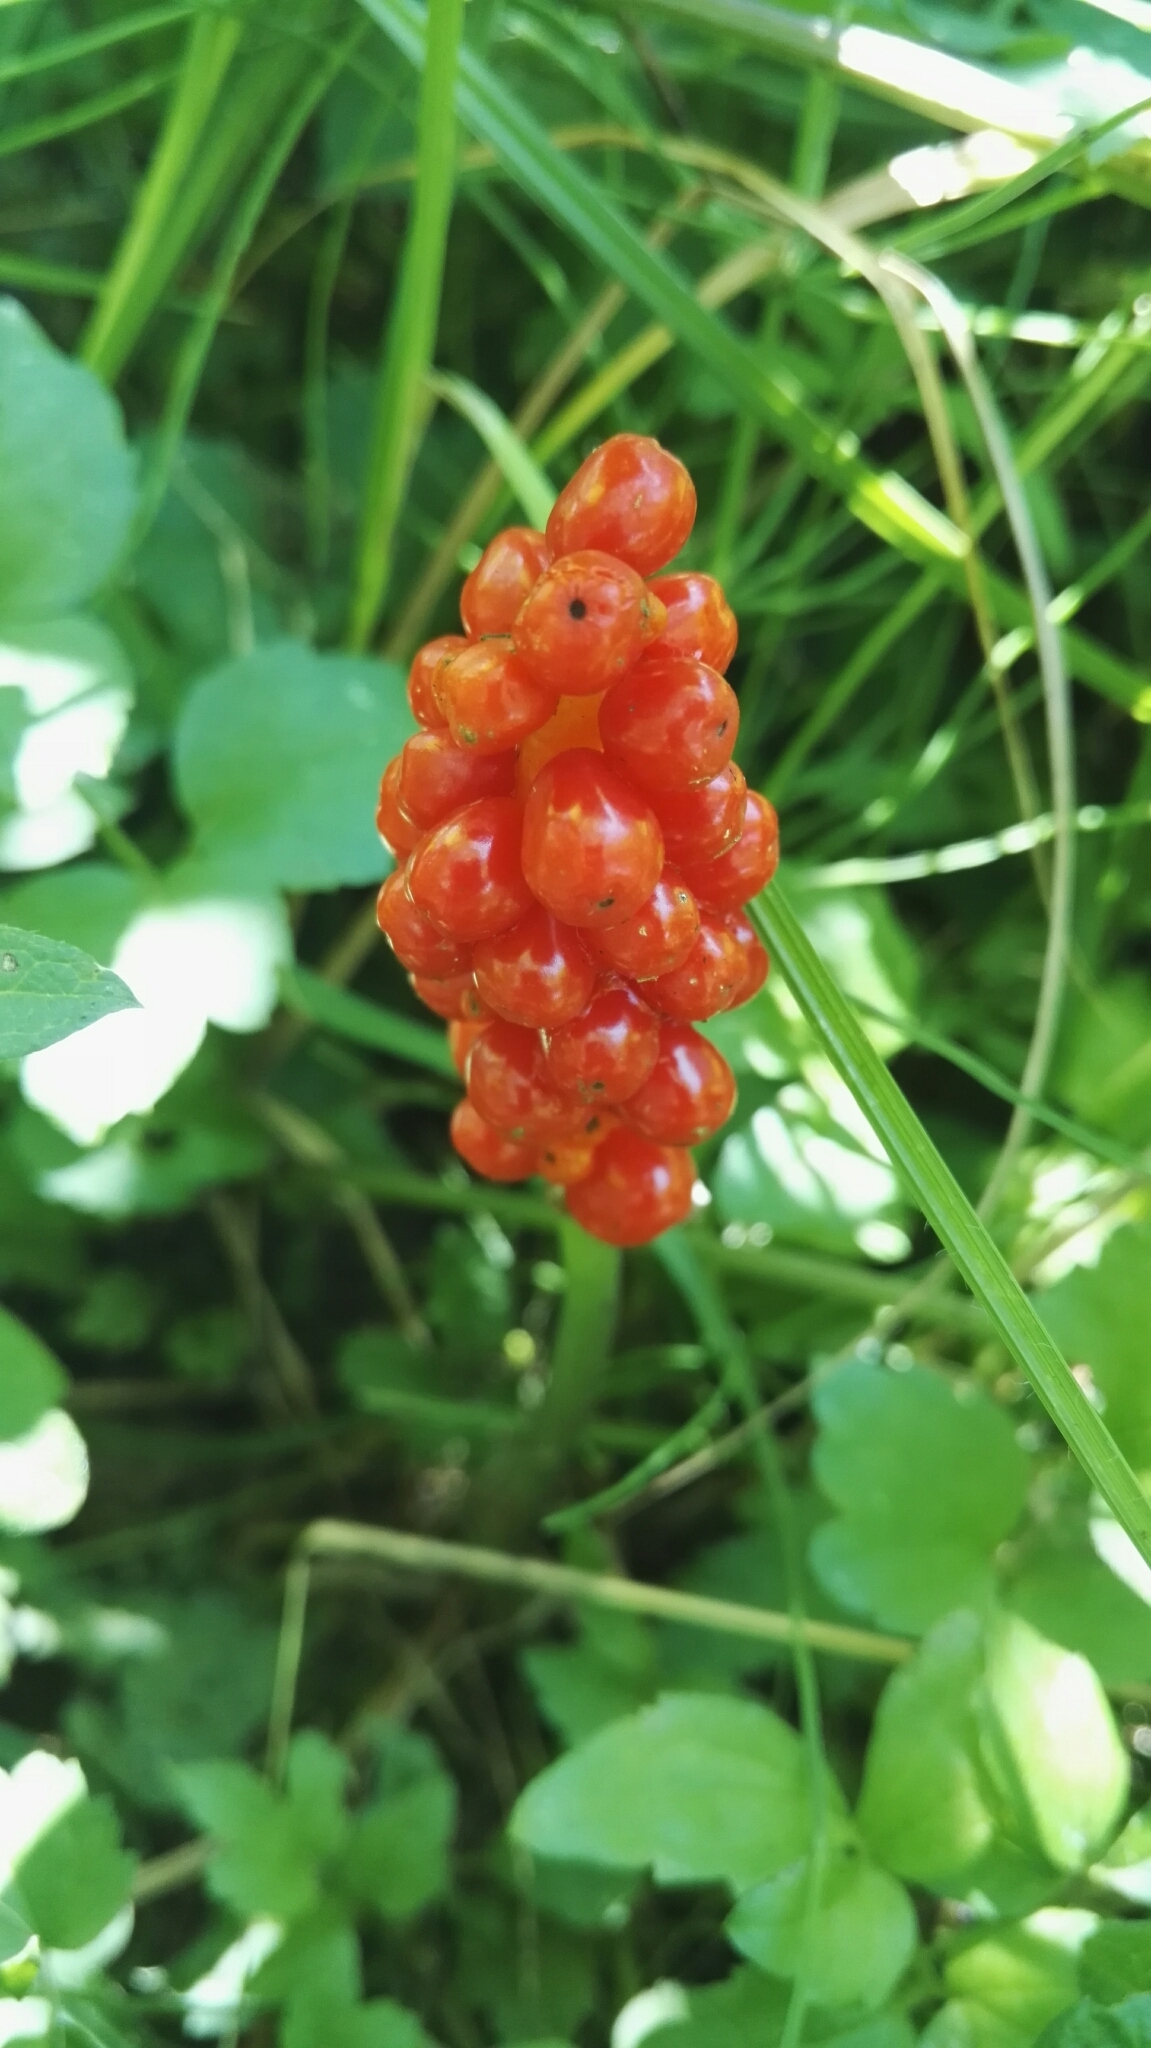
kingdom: Plantae
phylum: Tracheophyta
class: Liliopsida
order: Alismatales
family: Araceae
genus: Arum
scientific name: Arum italicum
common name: Italian lords-and-ladies
